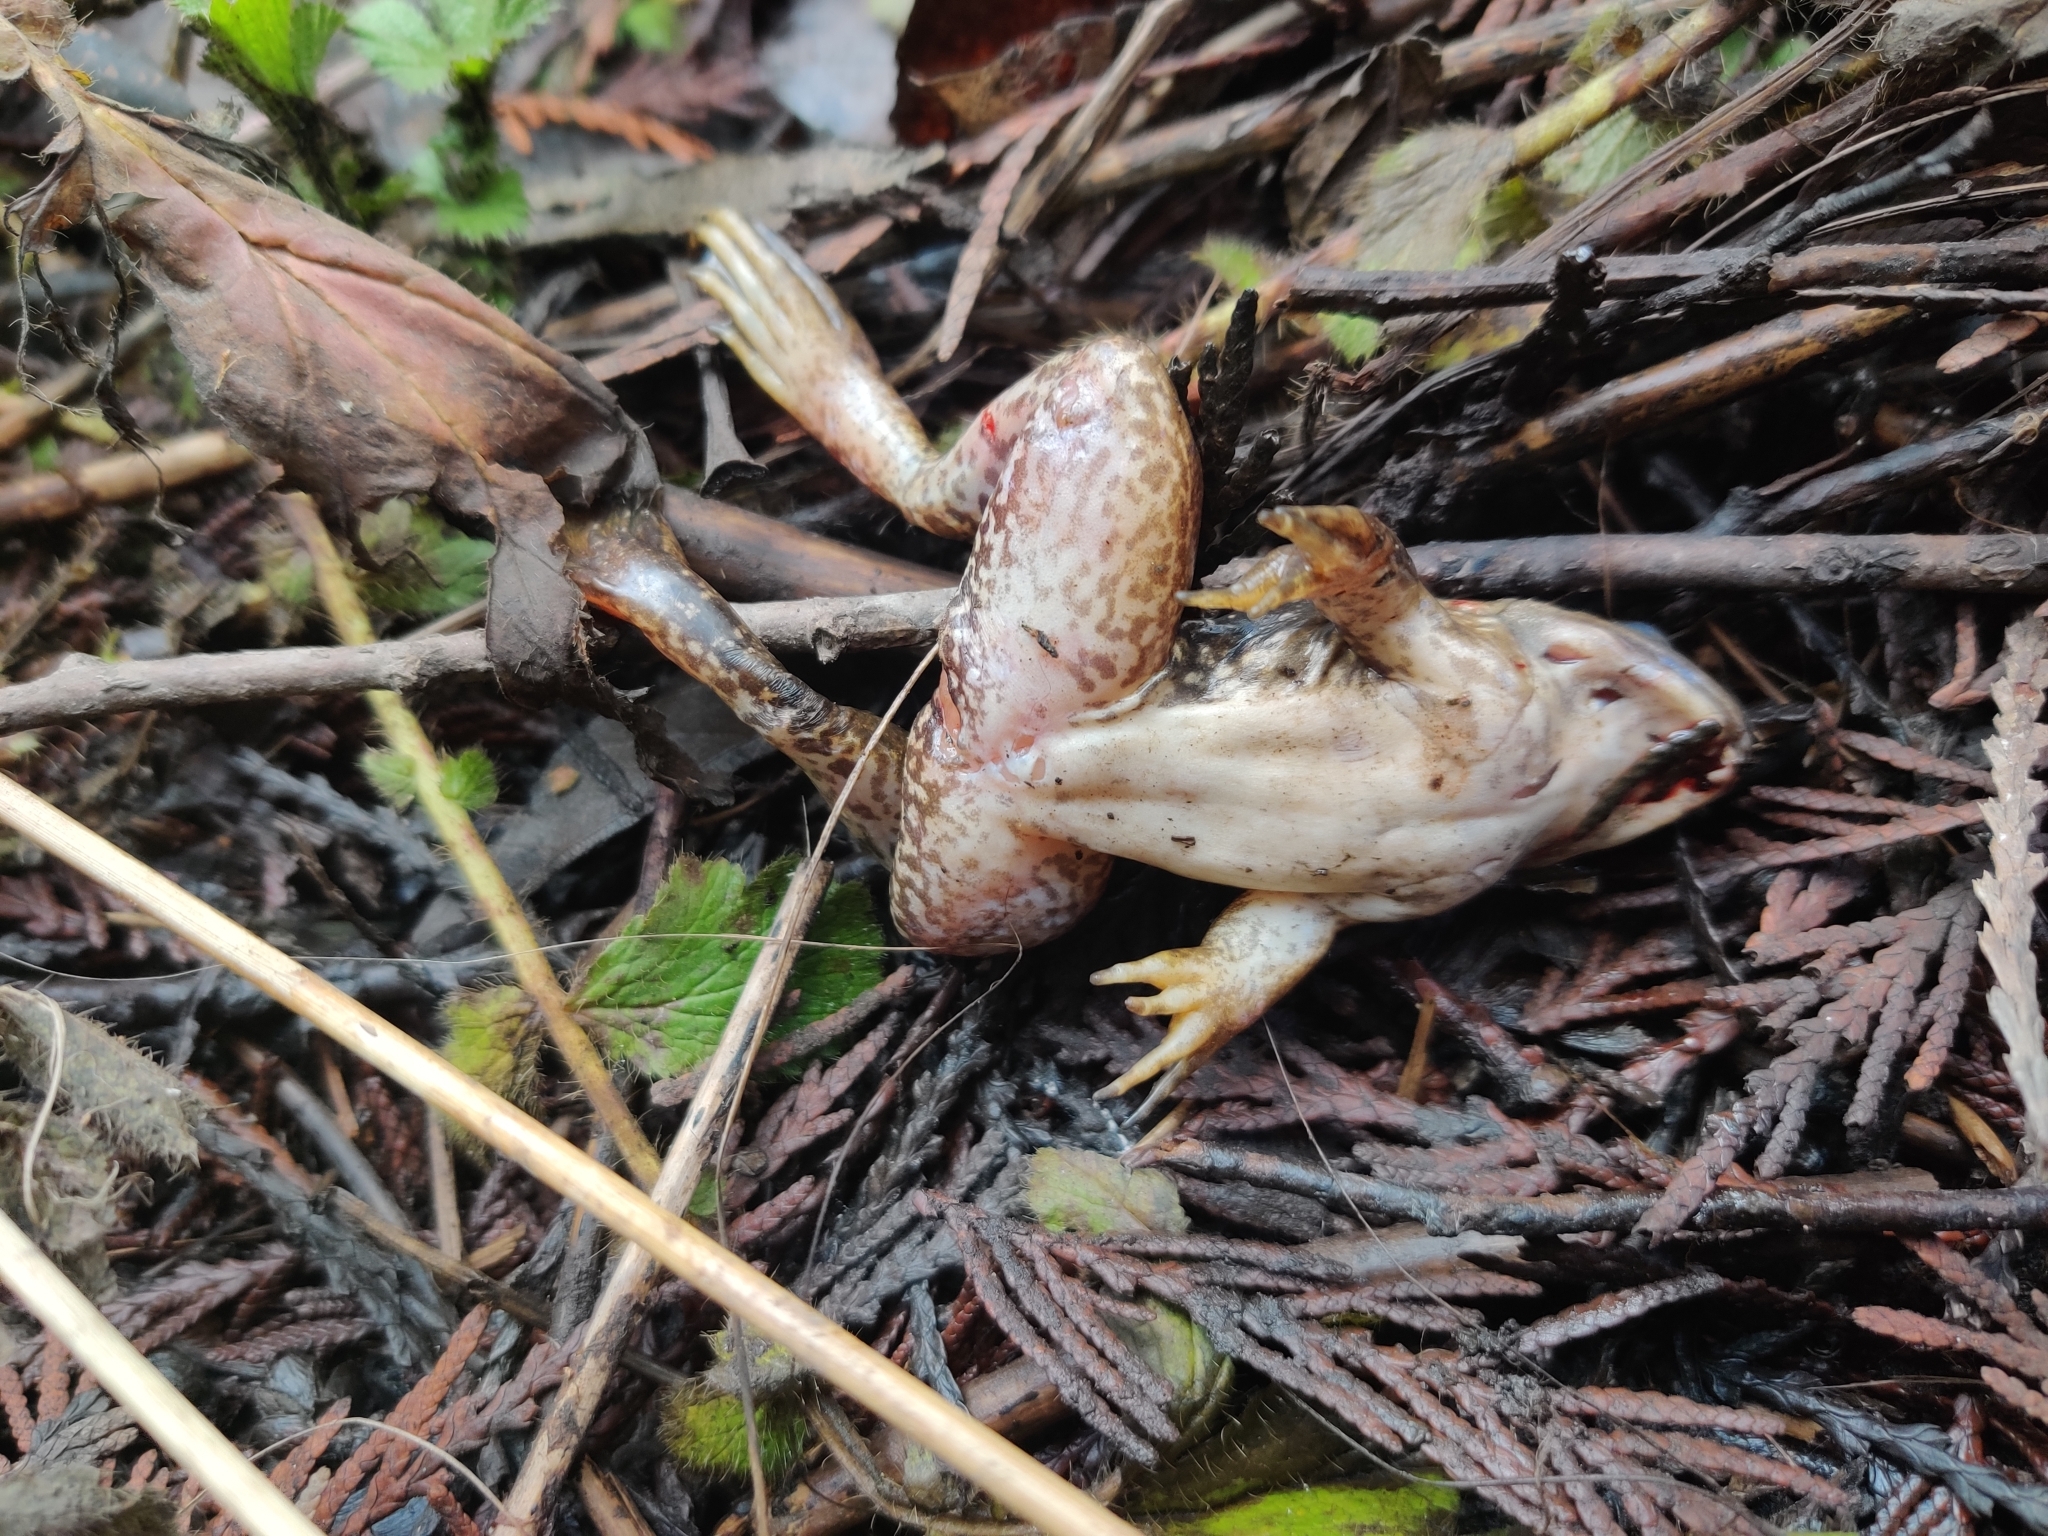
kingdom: Animalia
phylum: Chordata
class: Amphibia
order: Anura
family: Ranidae
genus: Lithobates
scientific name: Lithobates catesbeianus
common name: American bullfrog
